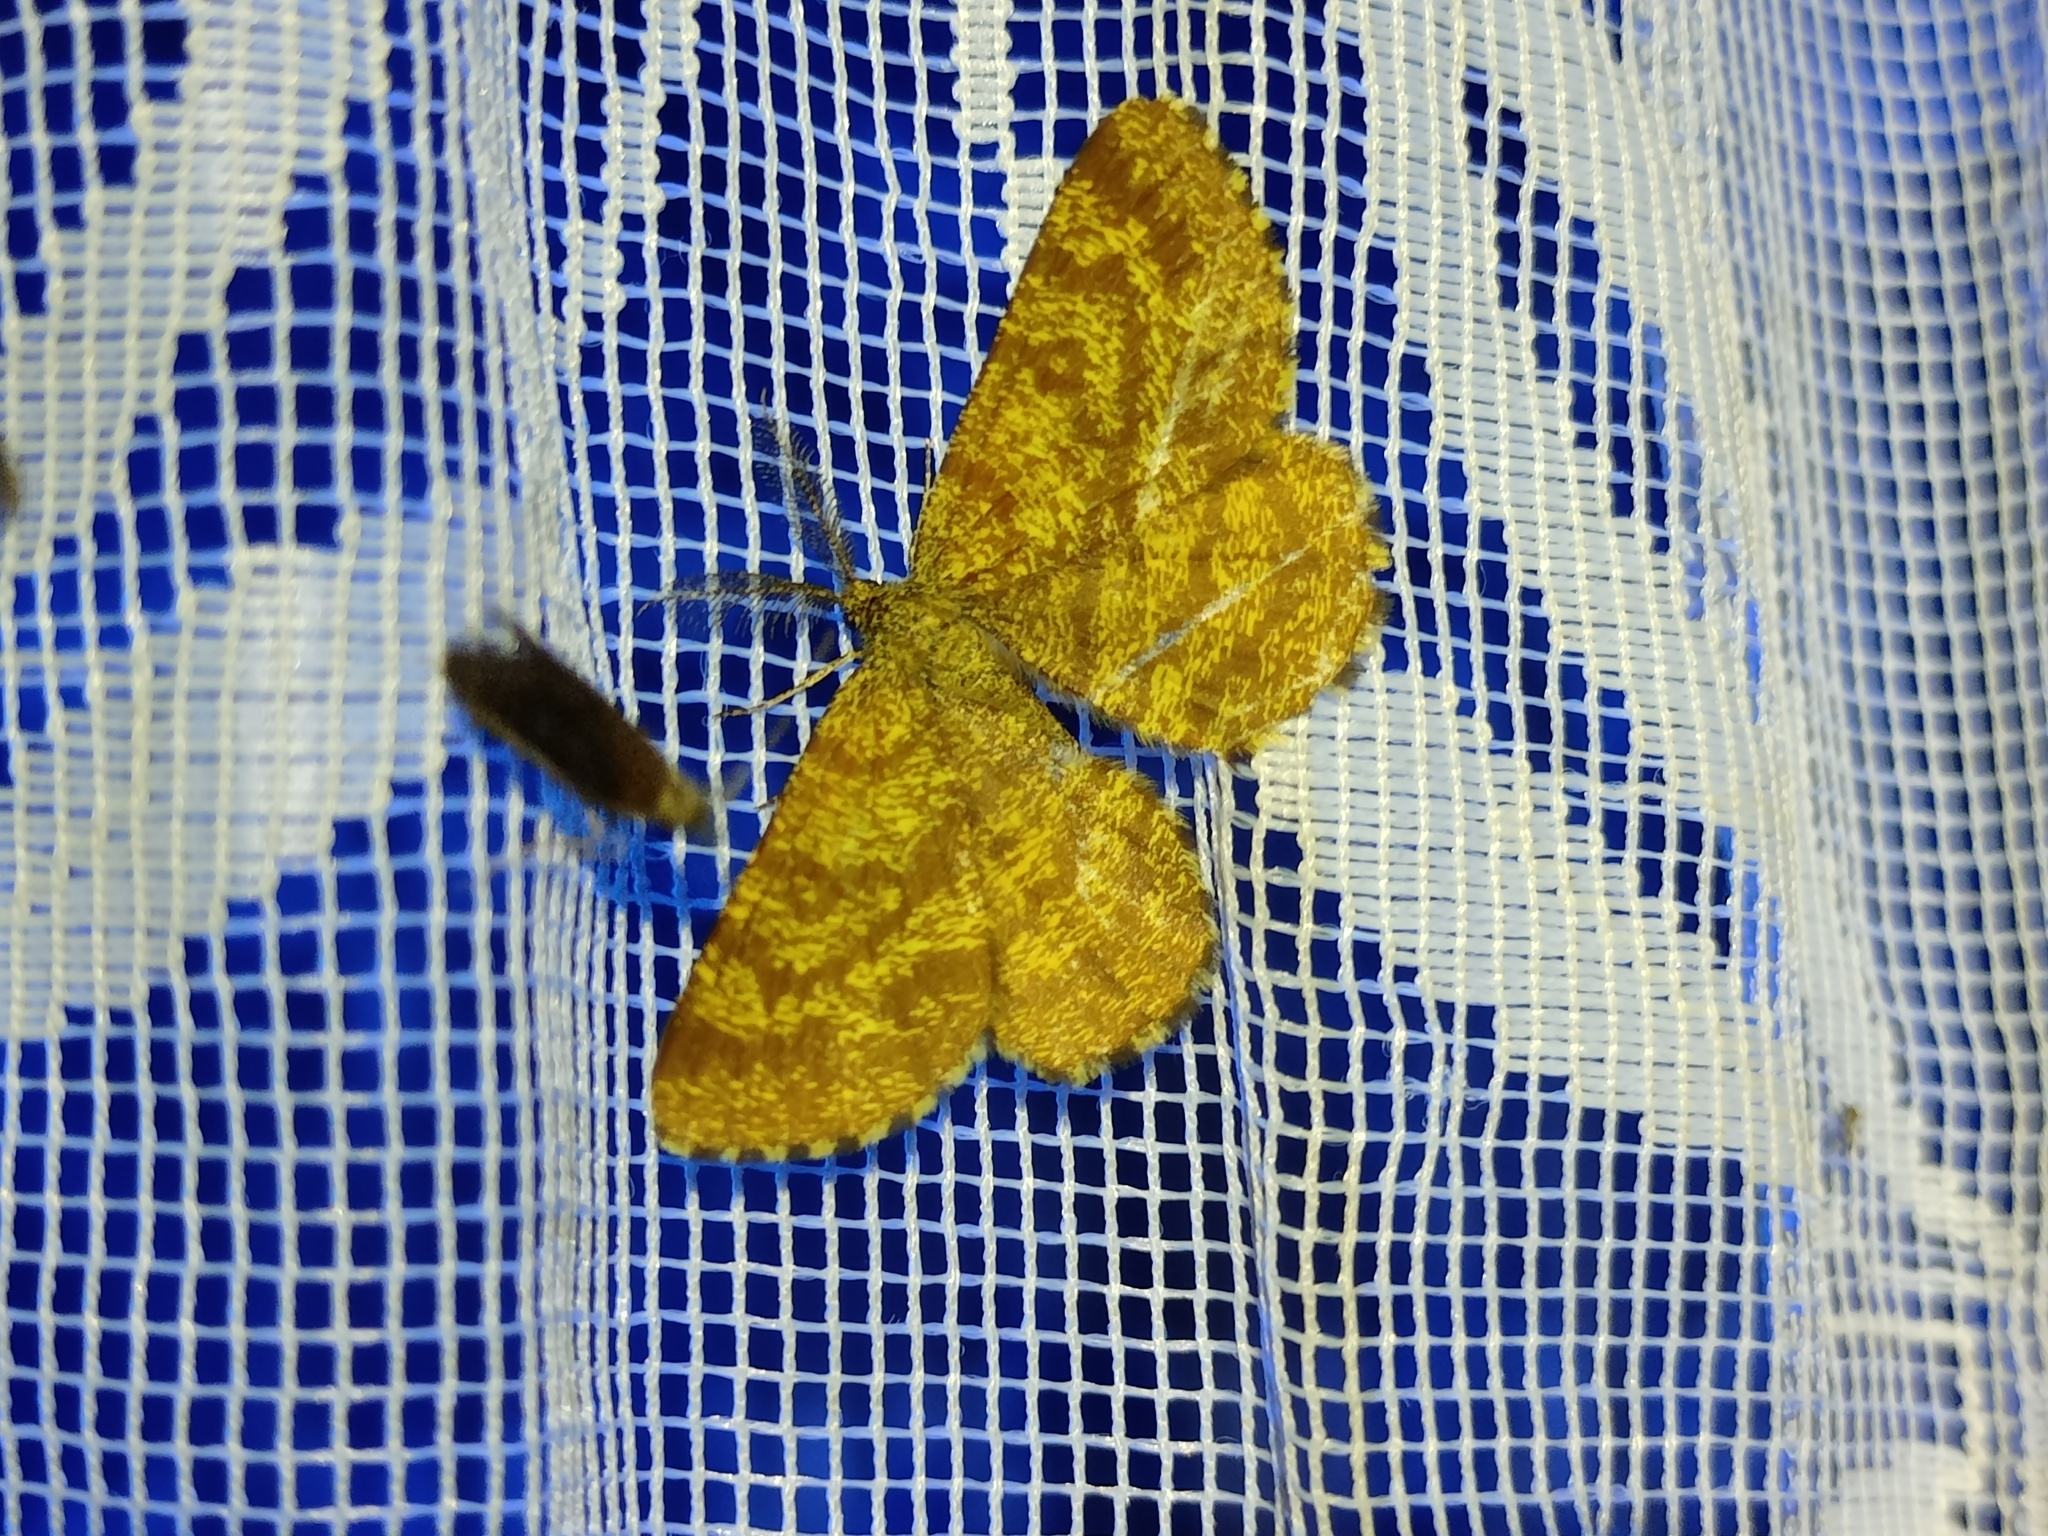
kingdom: Animalia
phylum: Arthropoda
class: Insecta
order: Lepidoptera
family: Geometridae
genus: Ematurga
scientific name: Ematurga atomaria
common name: Common heath
